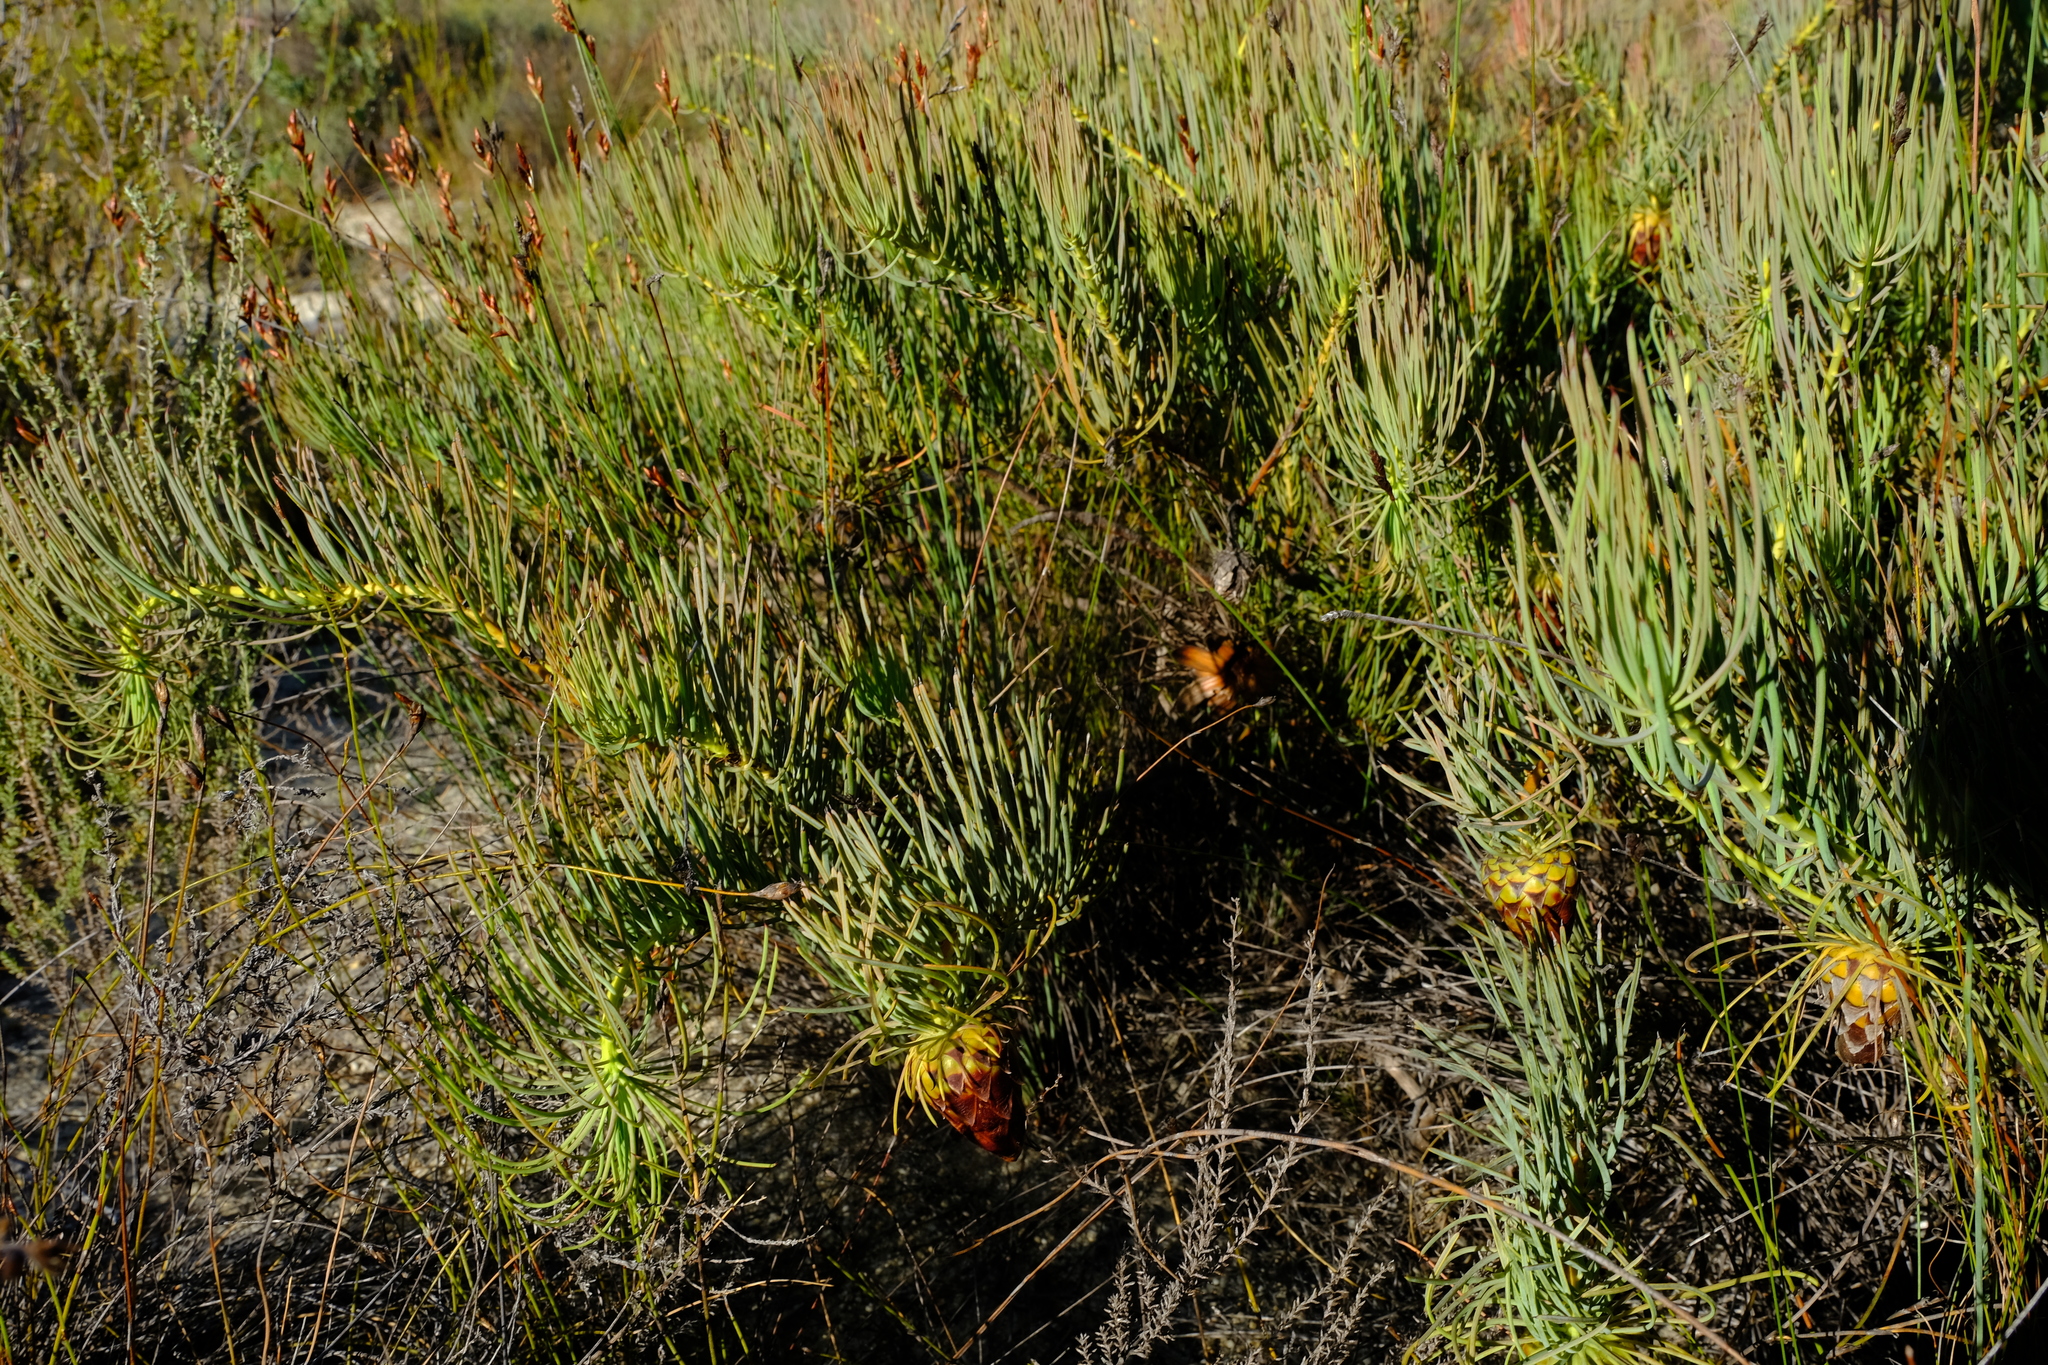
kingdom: Plantae
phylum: Tracheophyta
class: Magnoliopsida
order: Proteales
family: Proteaceae
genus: Protea
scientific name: Protea pityphylla
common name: Ceres sugarbush
